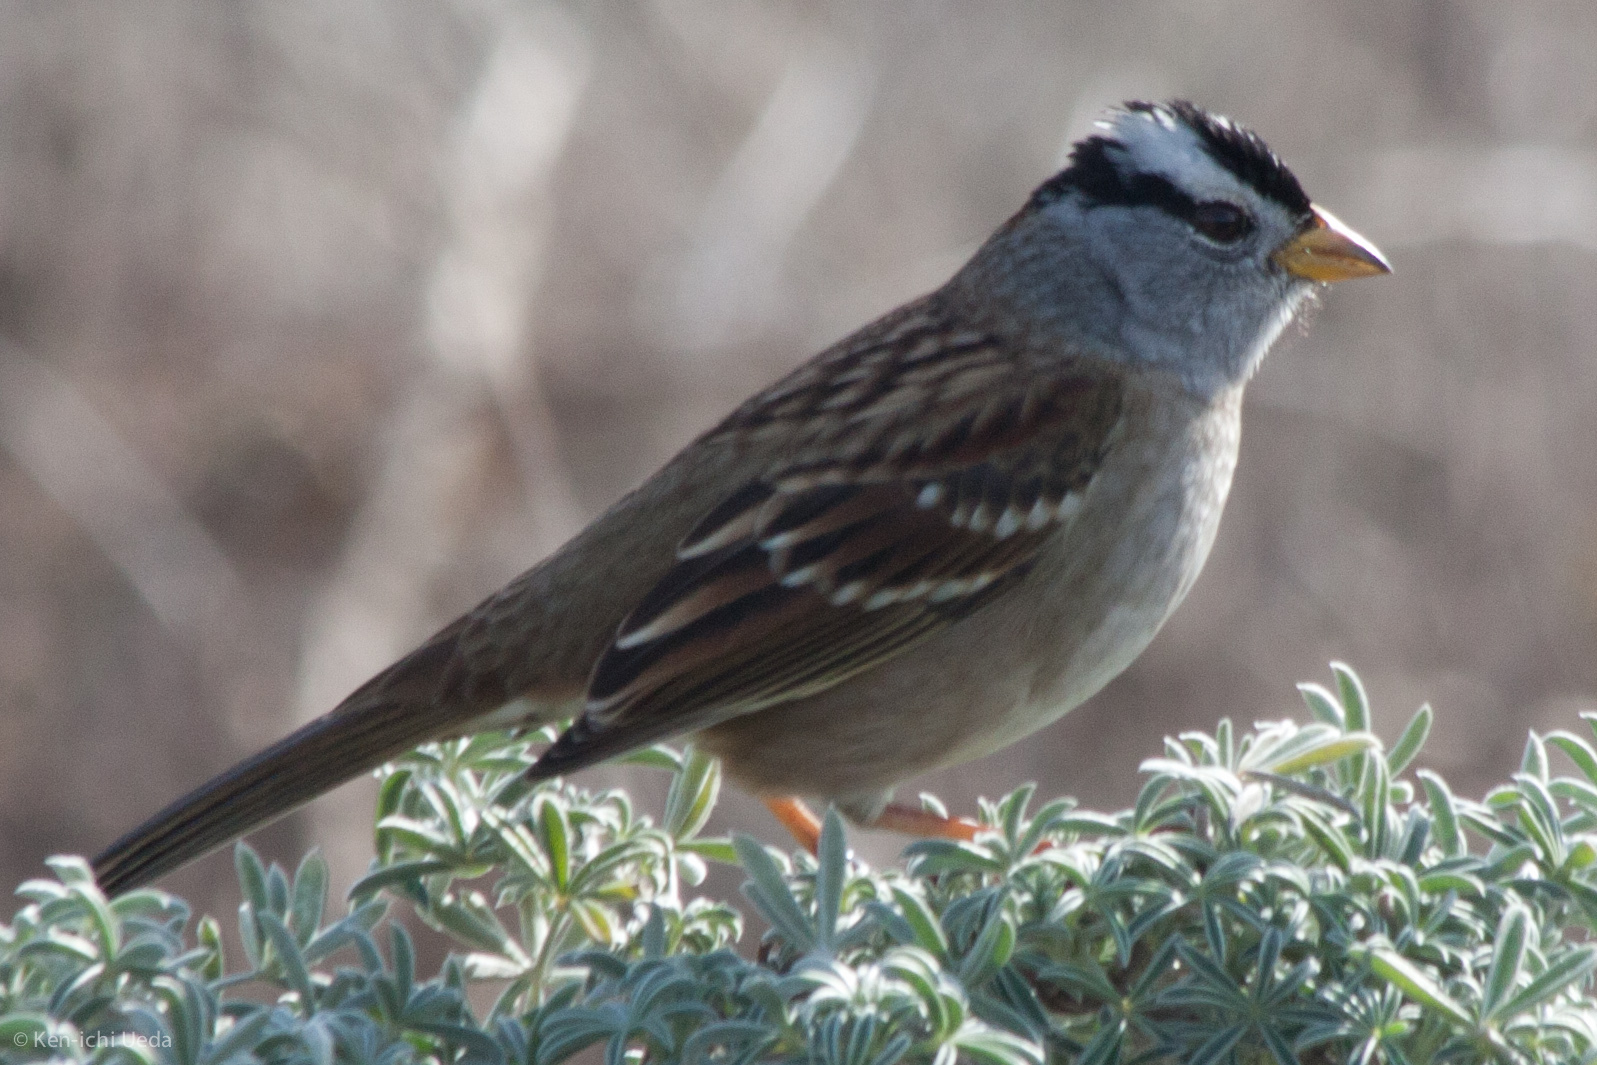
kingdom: Animalia
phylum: Chordata
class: Aves
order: Passeriformes
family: Passerellidae
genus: Zonotrichia
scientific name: Zonotrichia leucophrys
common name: White-crowned sparrow
